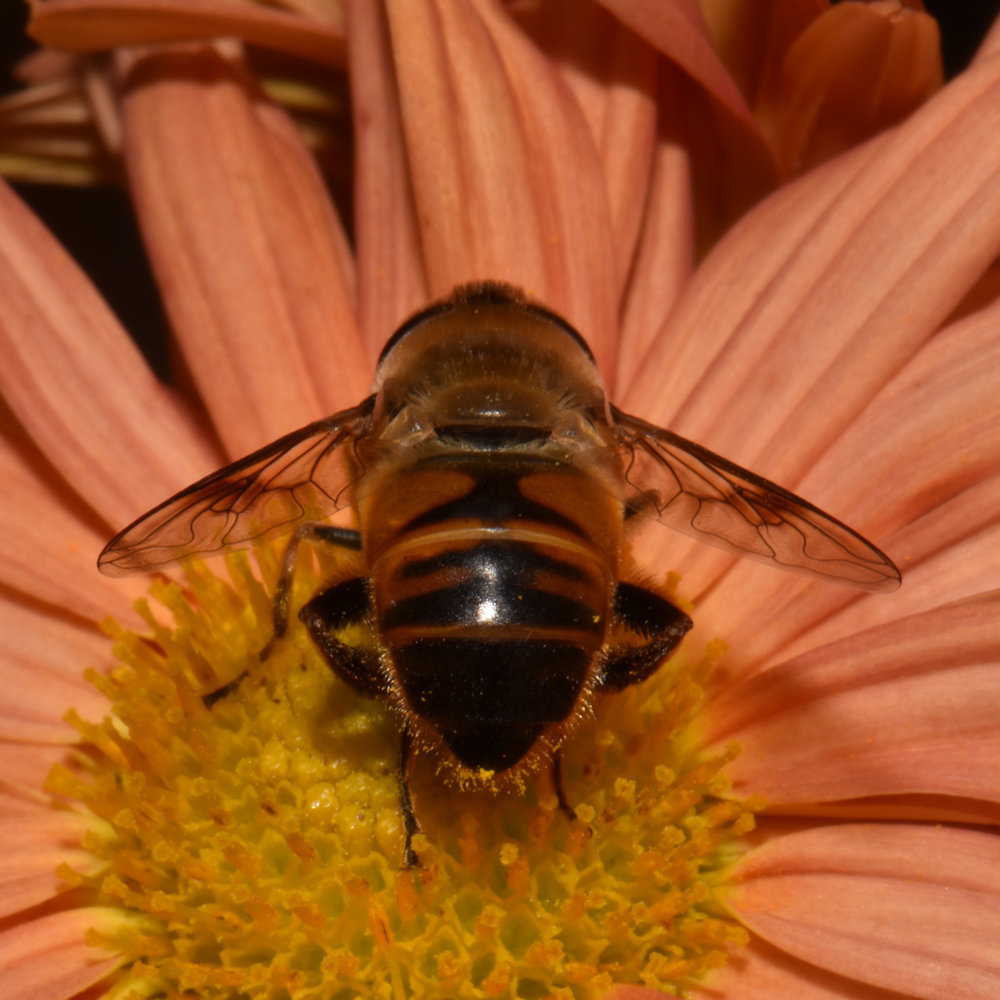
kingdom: Animalia
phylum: Arthropoda
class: Insecta
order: Diptera
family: Syrphidae
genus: Eristalis
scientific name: Eristalis tenax
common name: Drone fly
